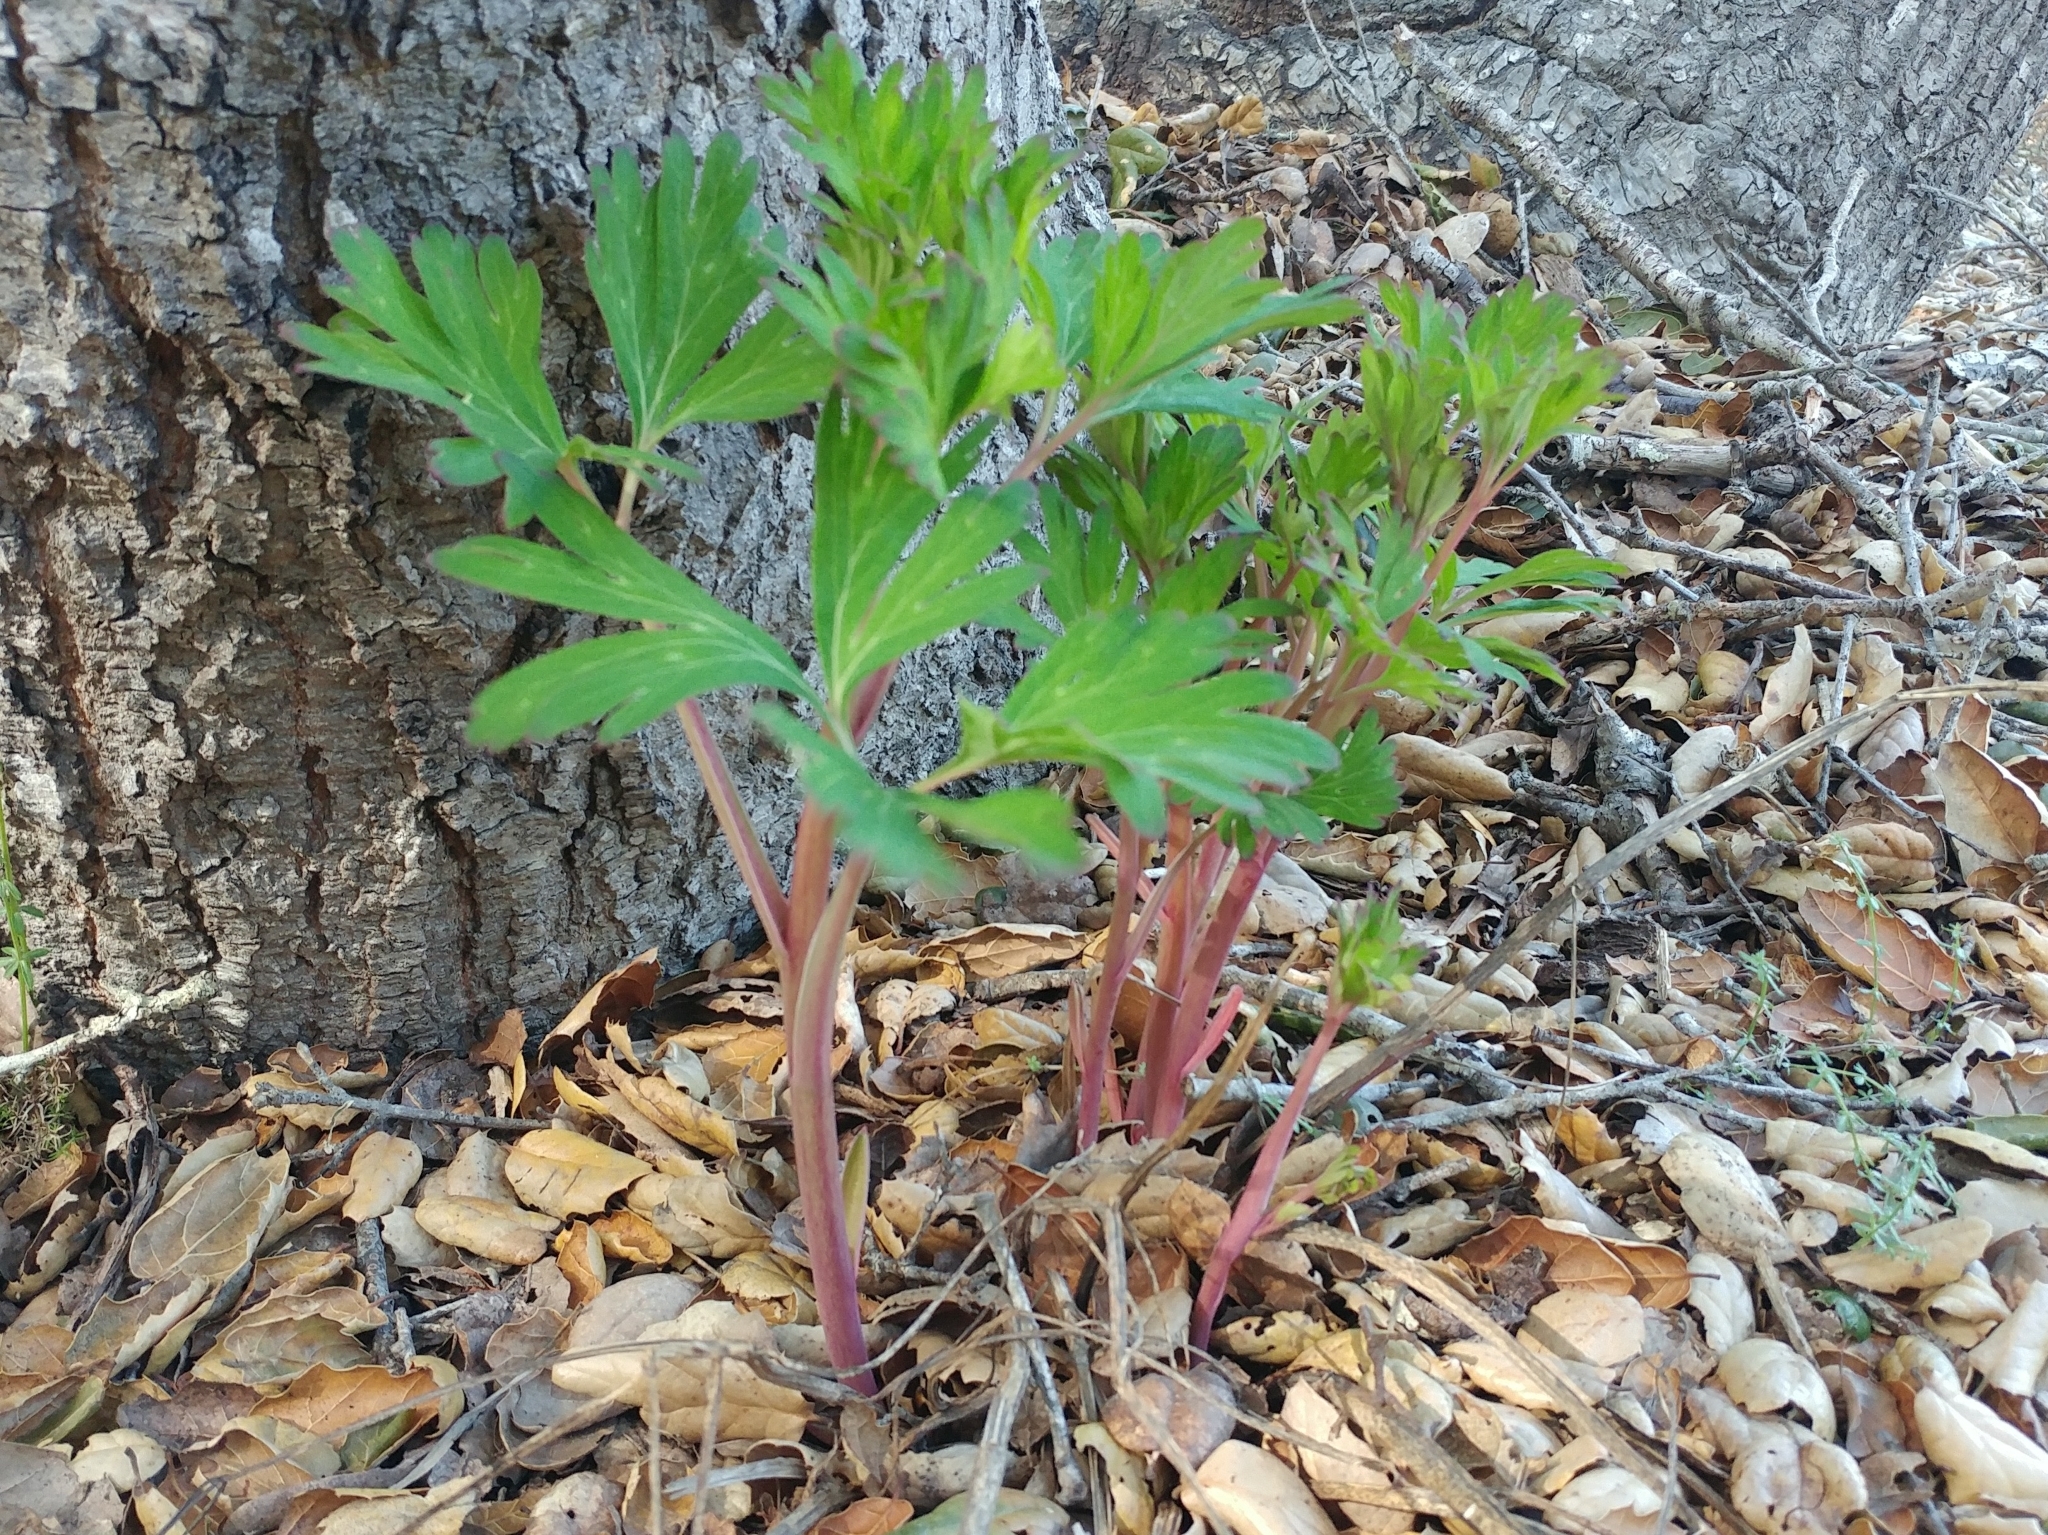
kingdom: Plantae
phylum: Tracheophyta
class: Magnoliopsida
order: Saxifragales
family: Paeoniaceae
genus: Paeonia
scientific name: Paeonia californica
